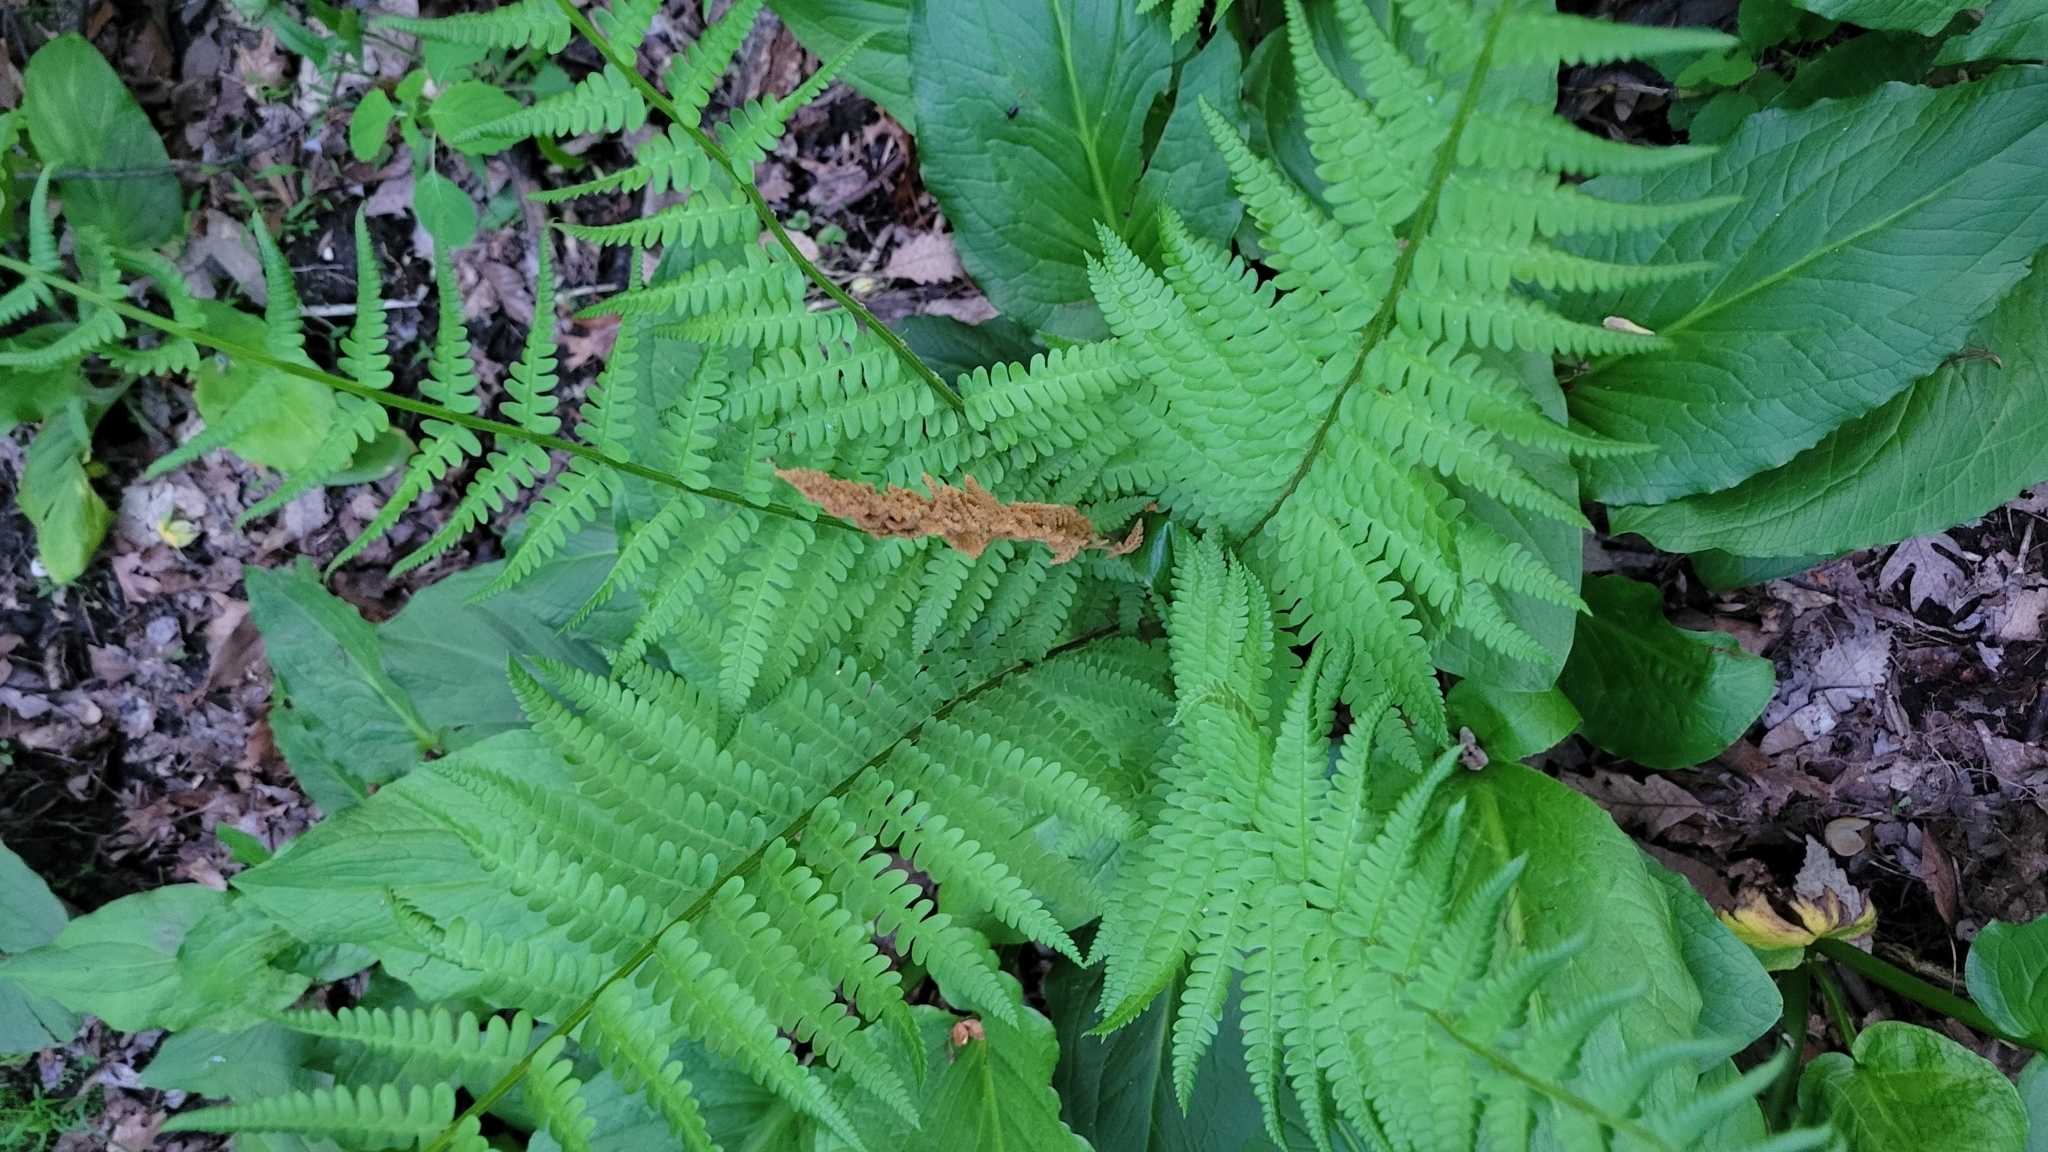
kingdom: Plantae
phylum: Tracheophyta
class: Polypodiopsida
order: Osmundales
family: Osmundaceae
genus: Osmundastrum
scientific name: Osmundastrum cinnamomeum
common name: Cinnamon fern
